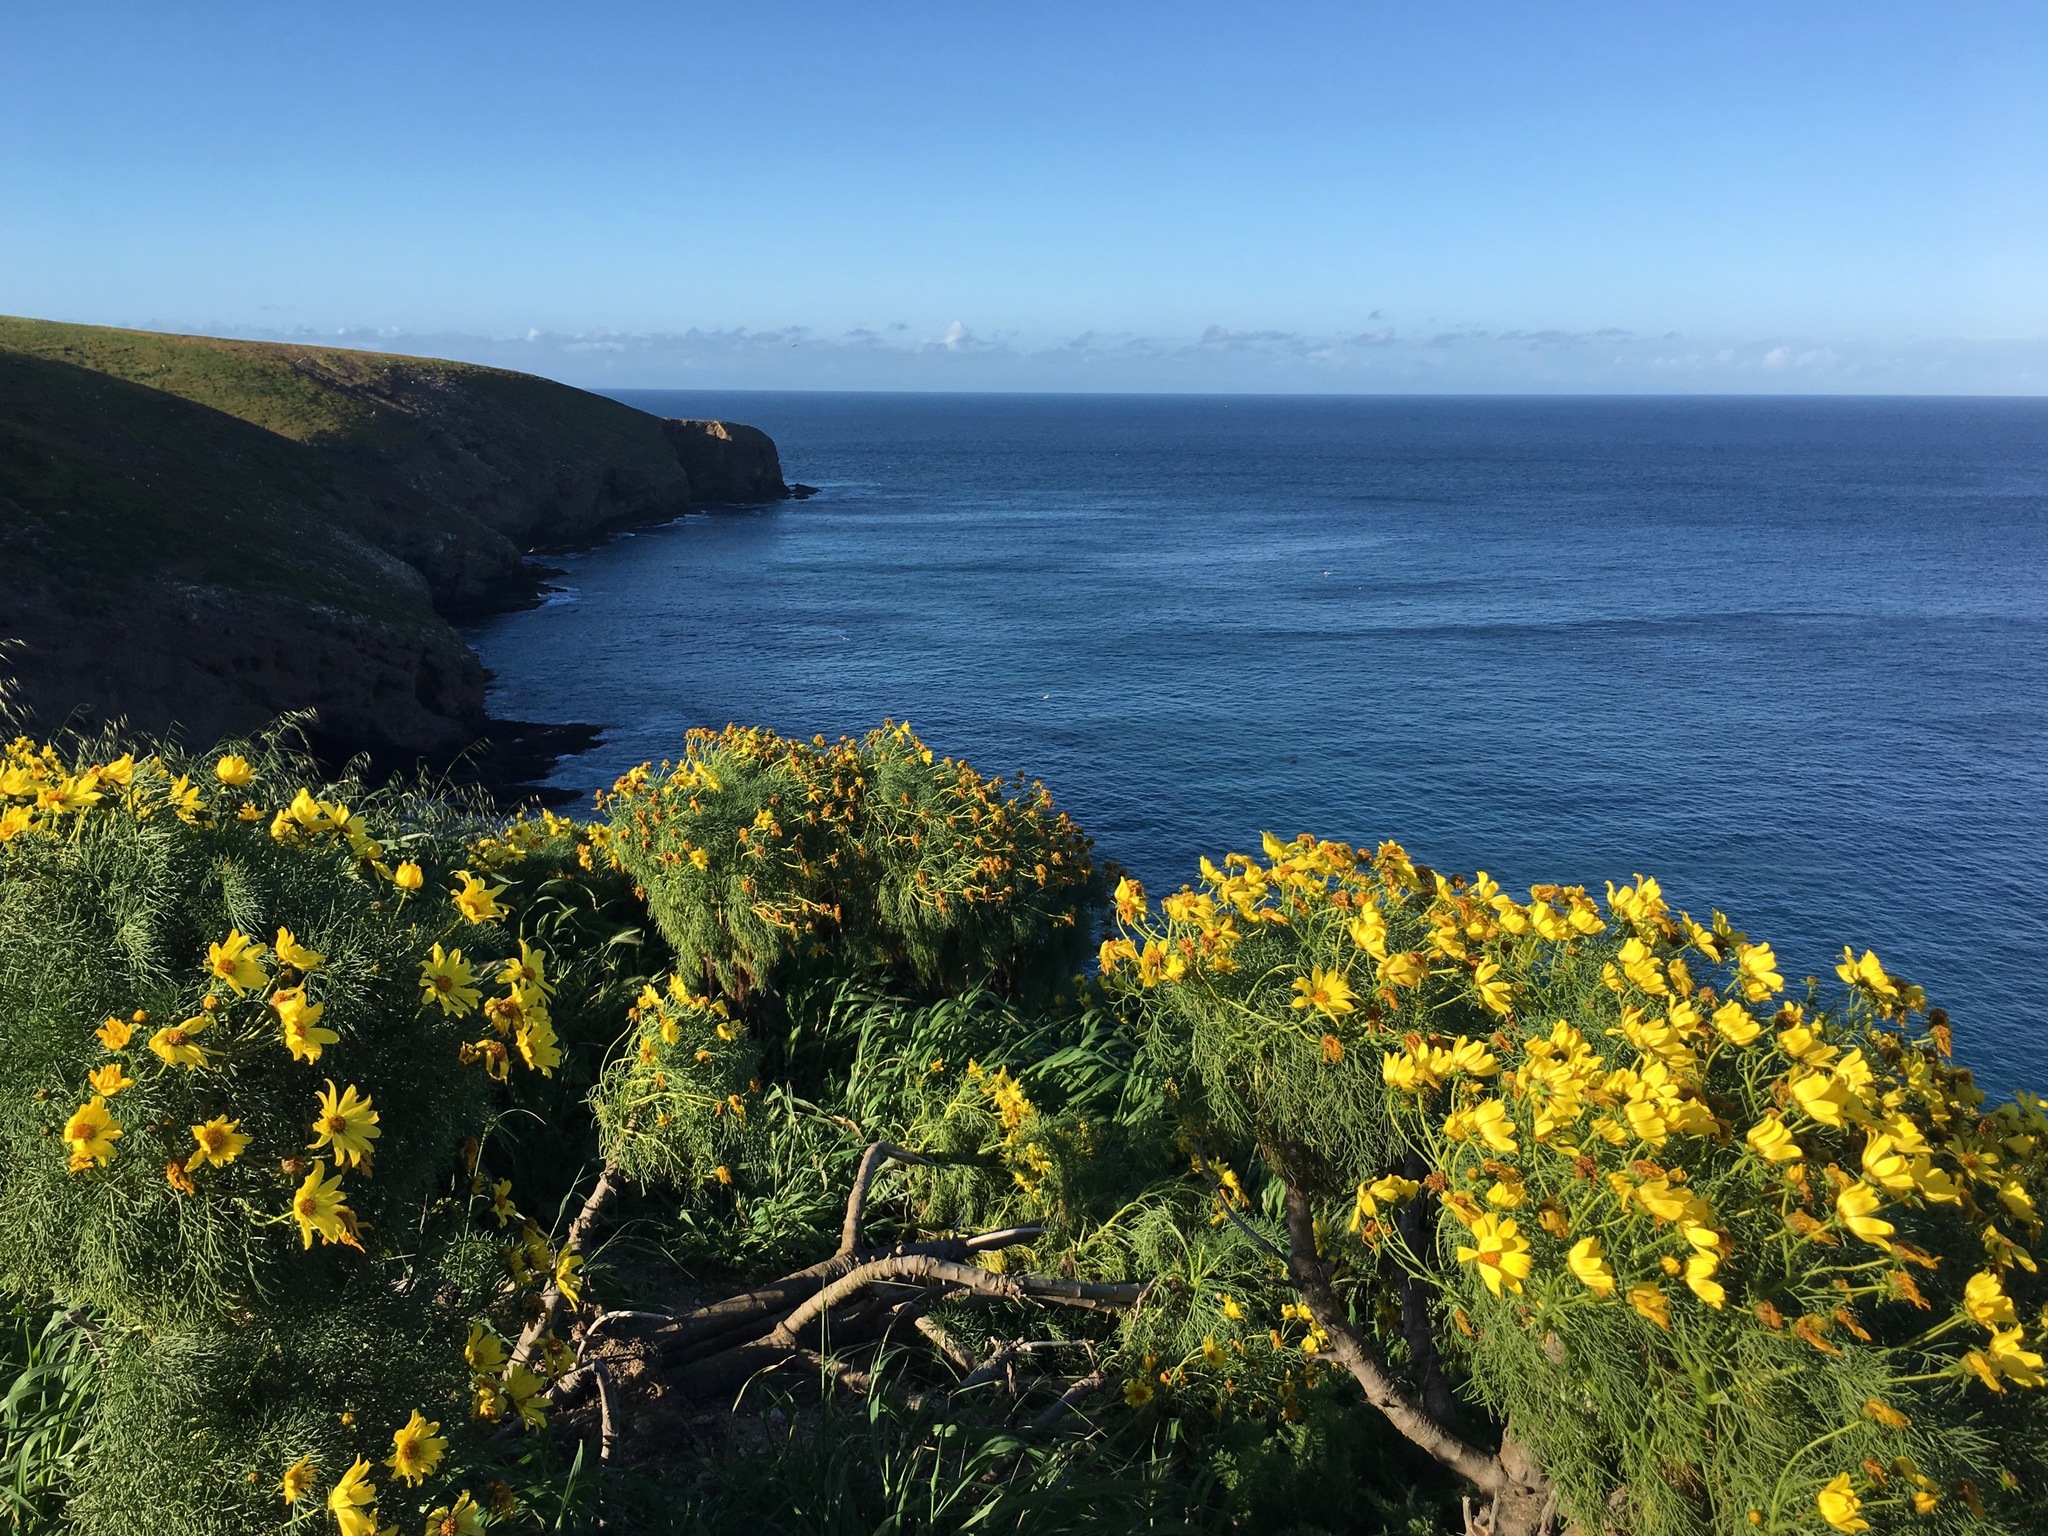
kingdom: Plantae
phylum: Tracheophyta
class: Magnoliopsida
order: Asterales
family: Asteraceae
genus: Coreopsis
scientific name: Coreopsis gigantea
